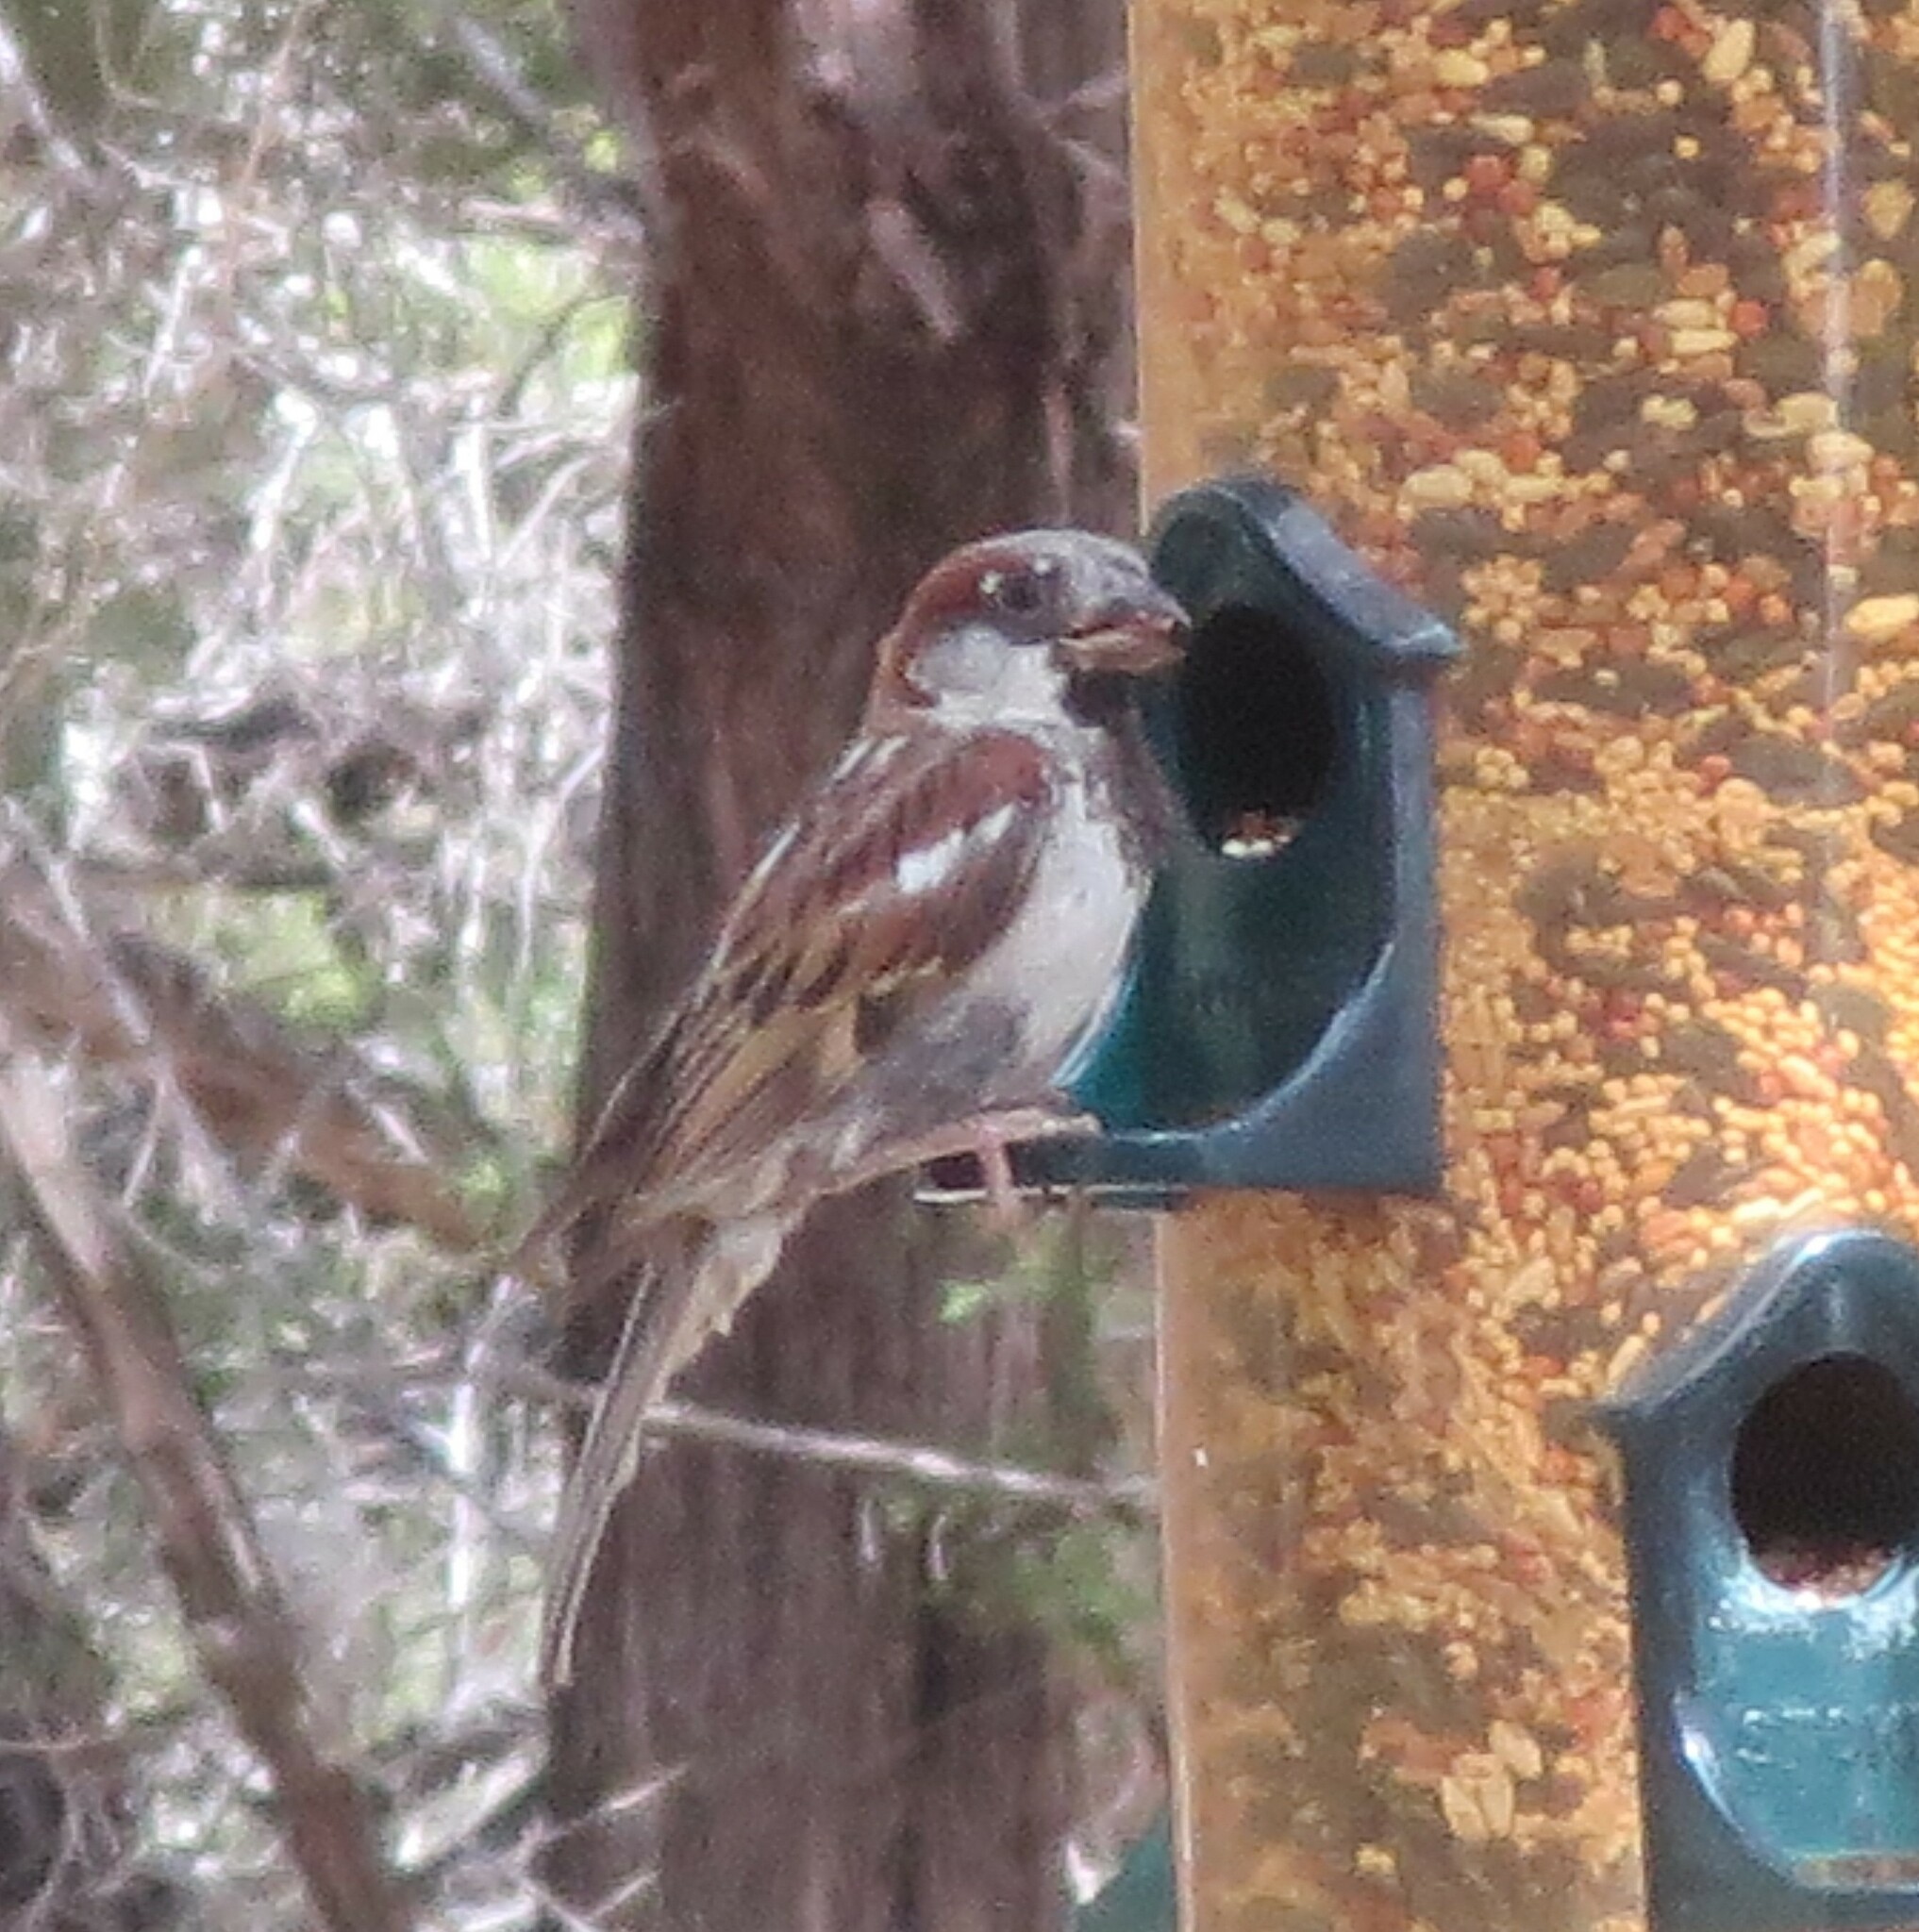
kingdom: Animalia
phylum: Chordata
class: Aves
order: Passeriformes
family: Passeridae
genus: Passer
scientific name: Passer domesticus
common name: House sparrow
